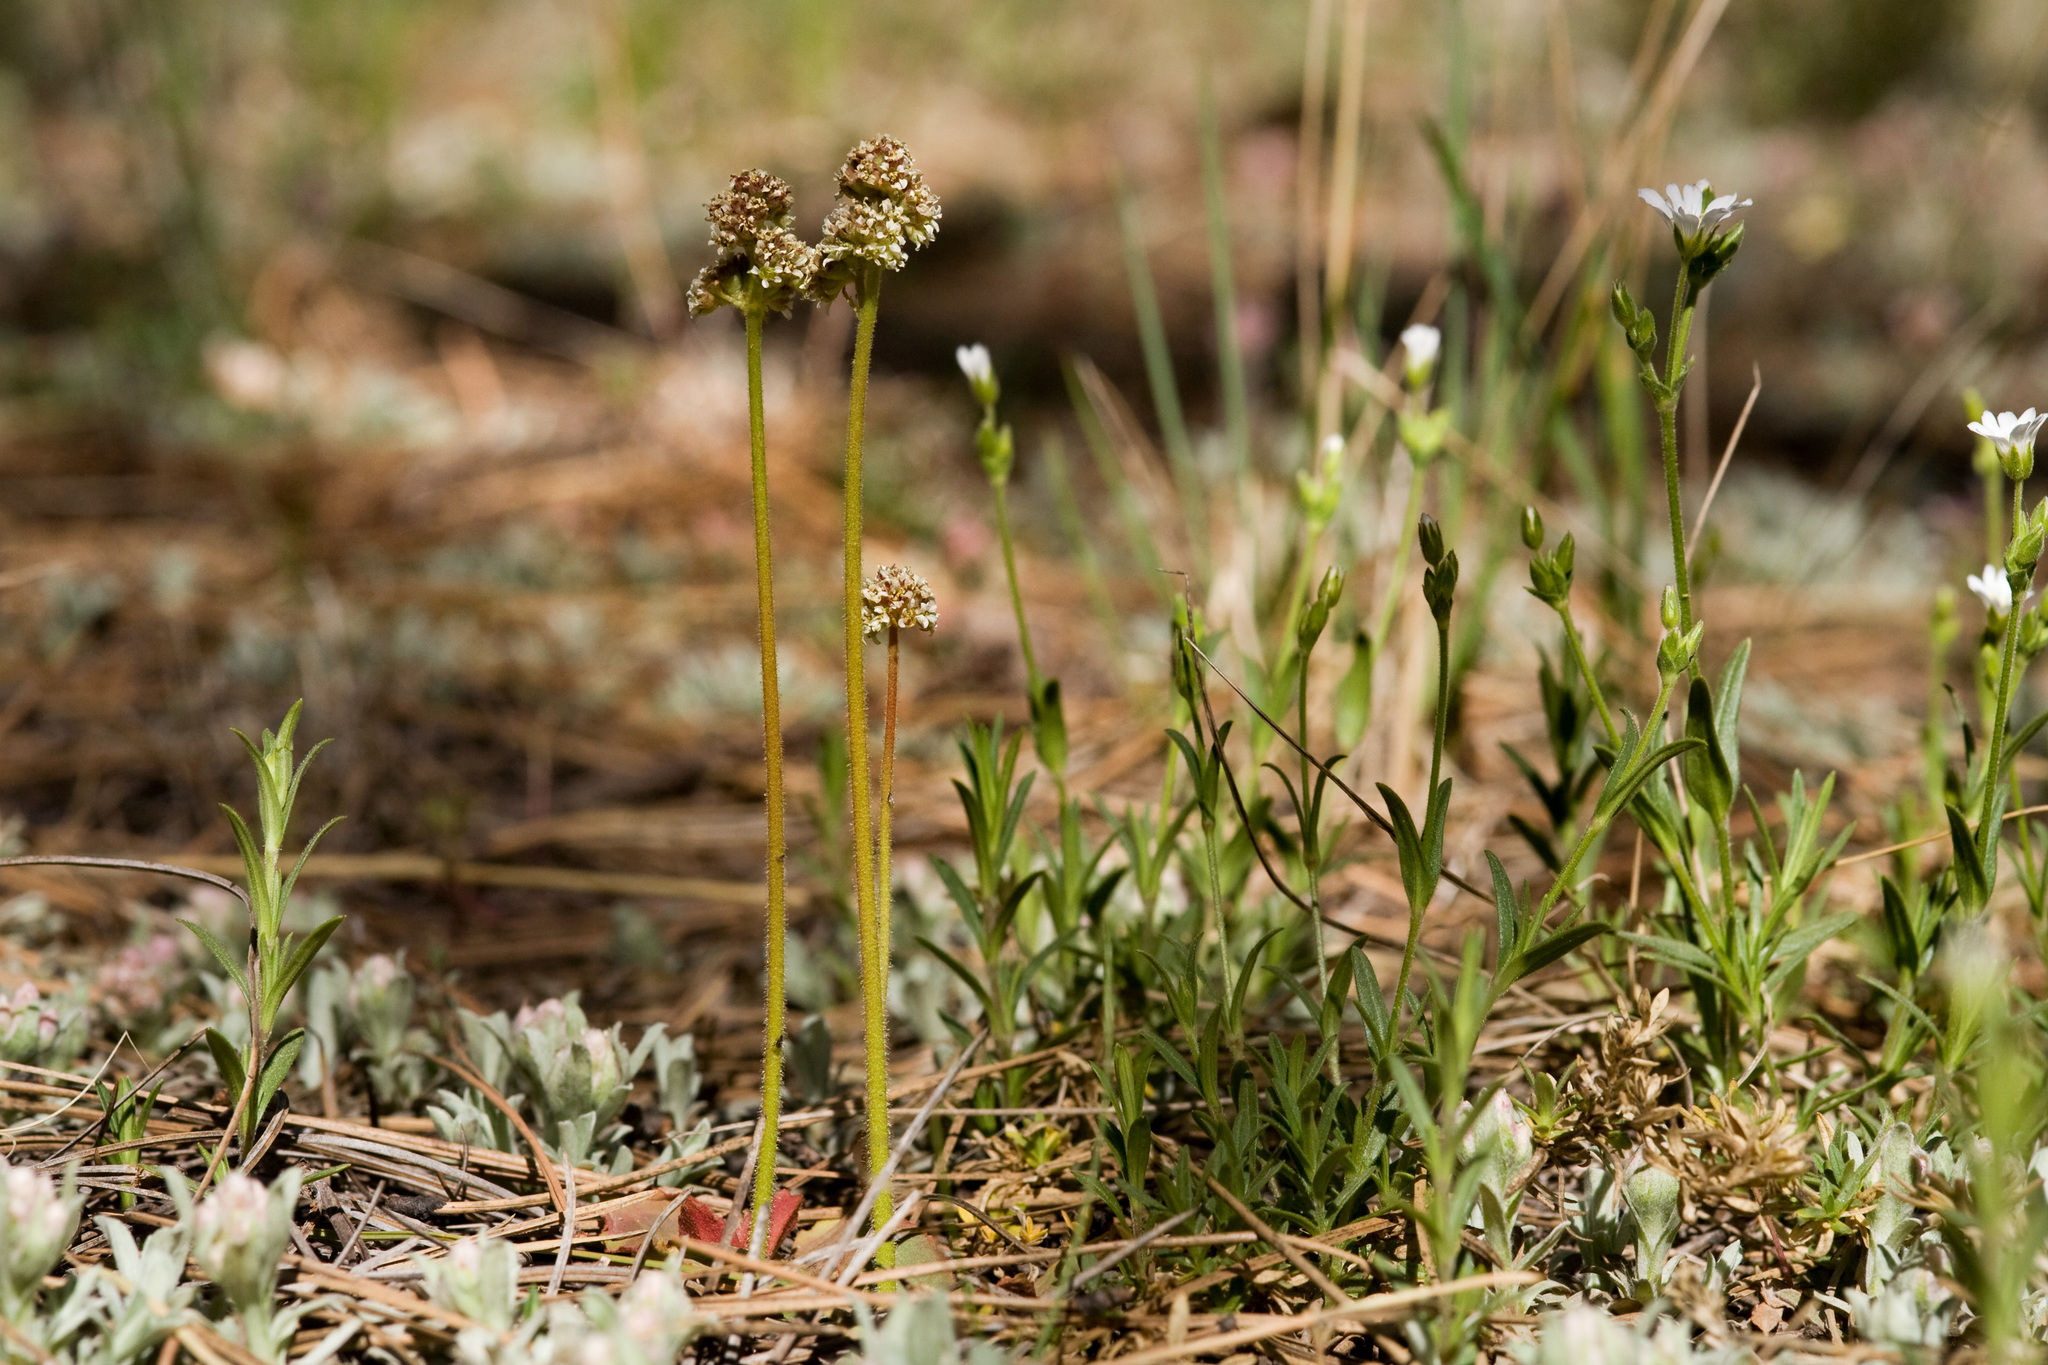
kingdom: Plantae
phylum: Tracheophyta
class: Magnoliopsida
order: Saxifragales
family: Saxifragaceae
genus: Micranthes
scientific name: Micranthes rhomboidea
